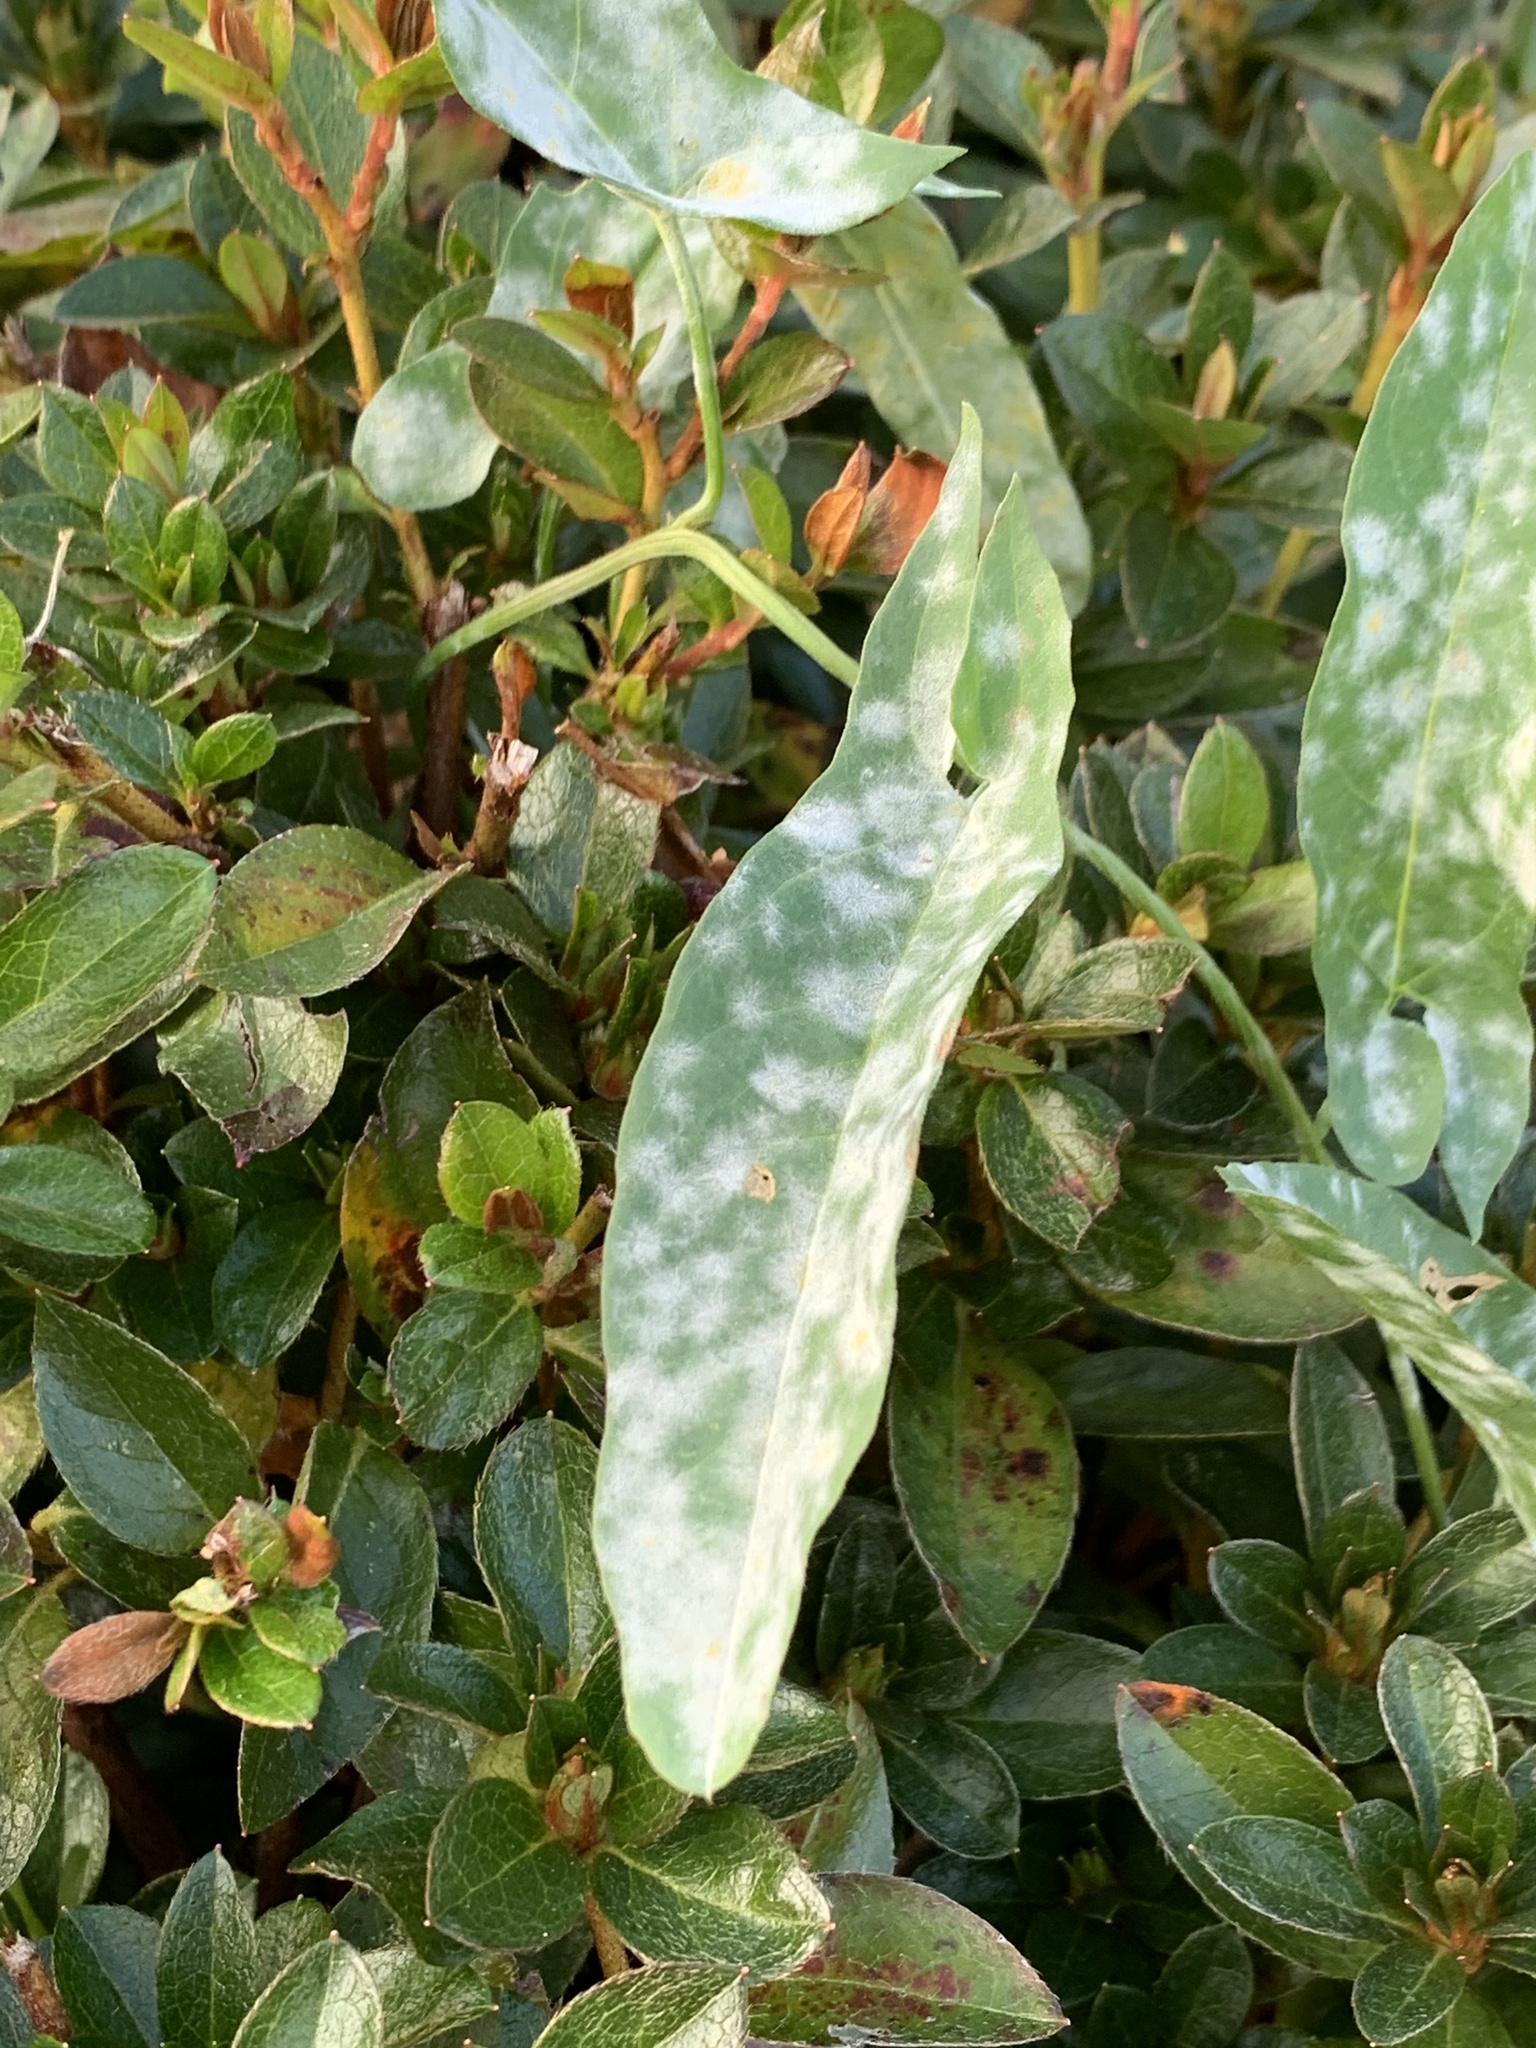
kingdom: Fungi
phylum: Ascomycota
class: Leotiomycetes
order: Helotiales
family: Erysiphaceae
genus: Erysiphe
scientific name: Erysiphe convolvuli
